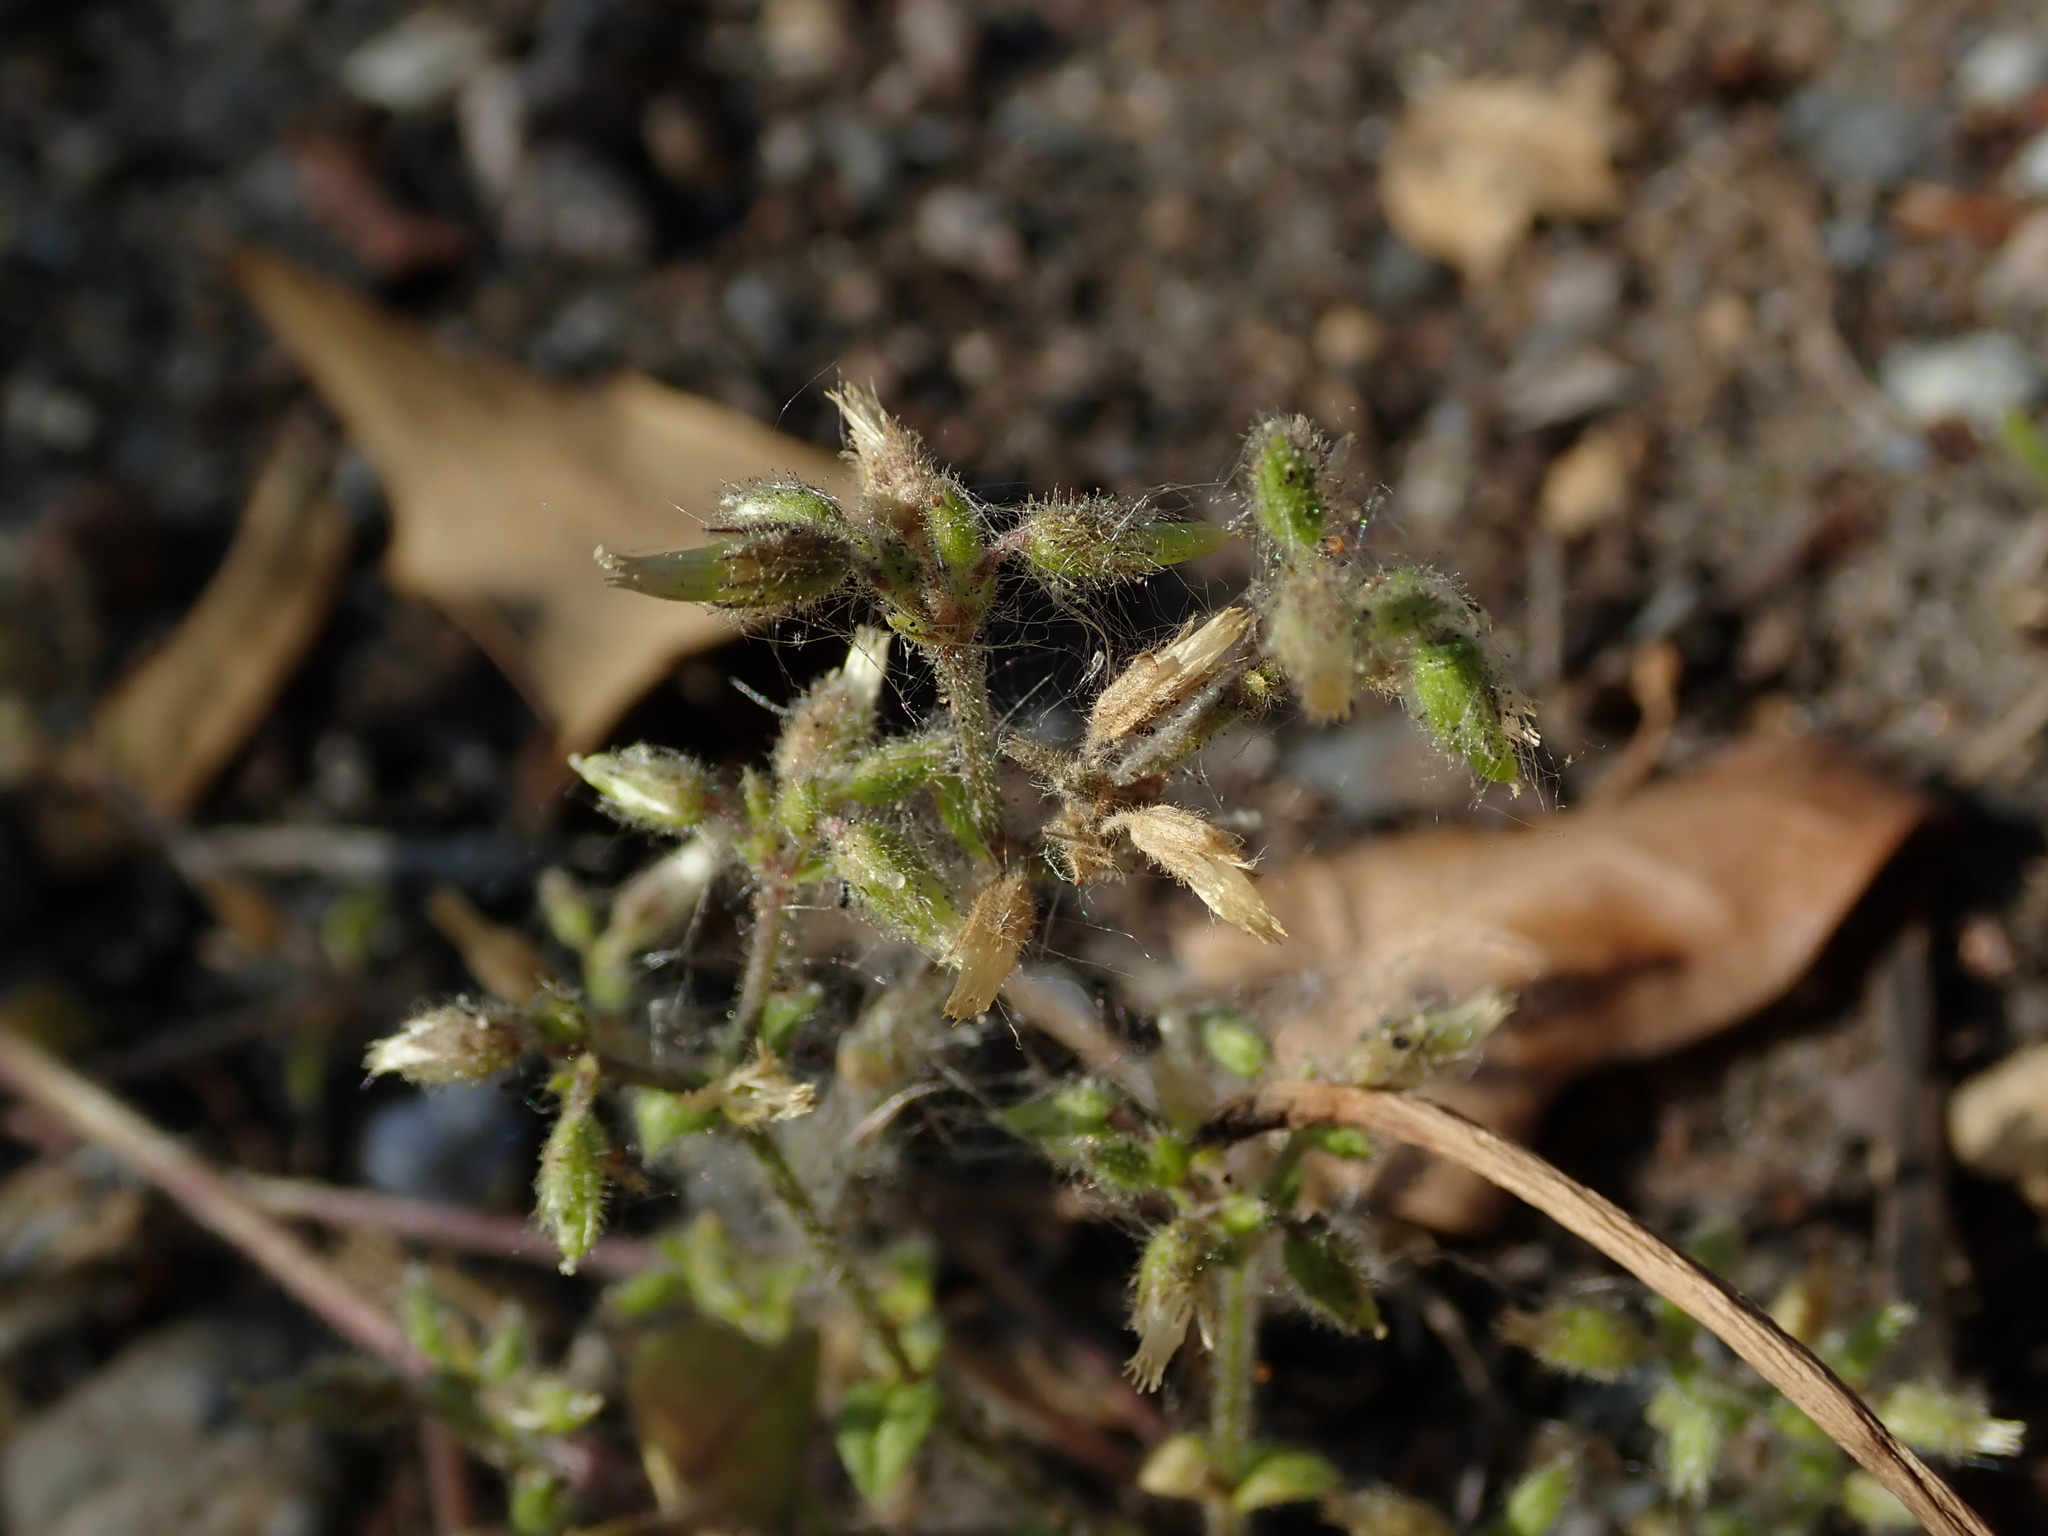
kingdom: Plantae
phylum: Tracheophyta
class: Magnoliopsida
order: Caryophyllales
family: Caryophyllaceae
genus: Cerastium
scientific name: Cerastium glomeratum
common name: Sticky chickweed
